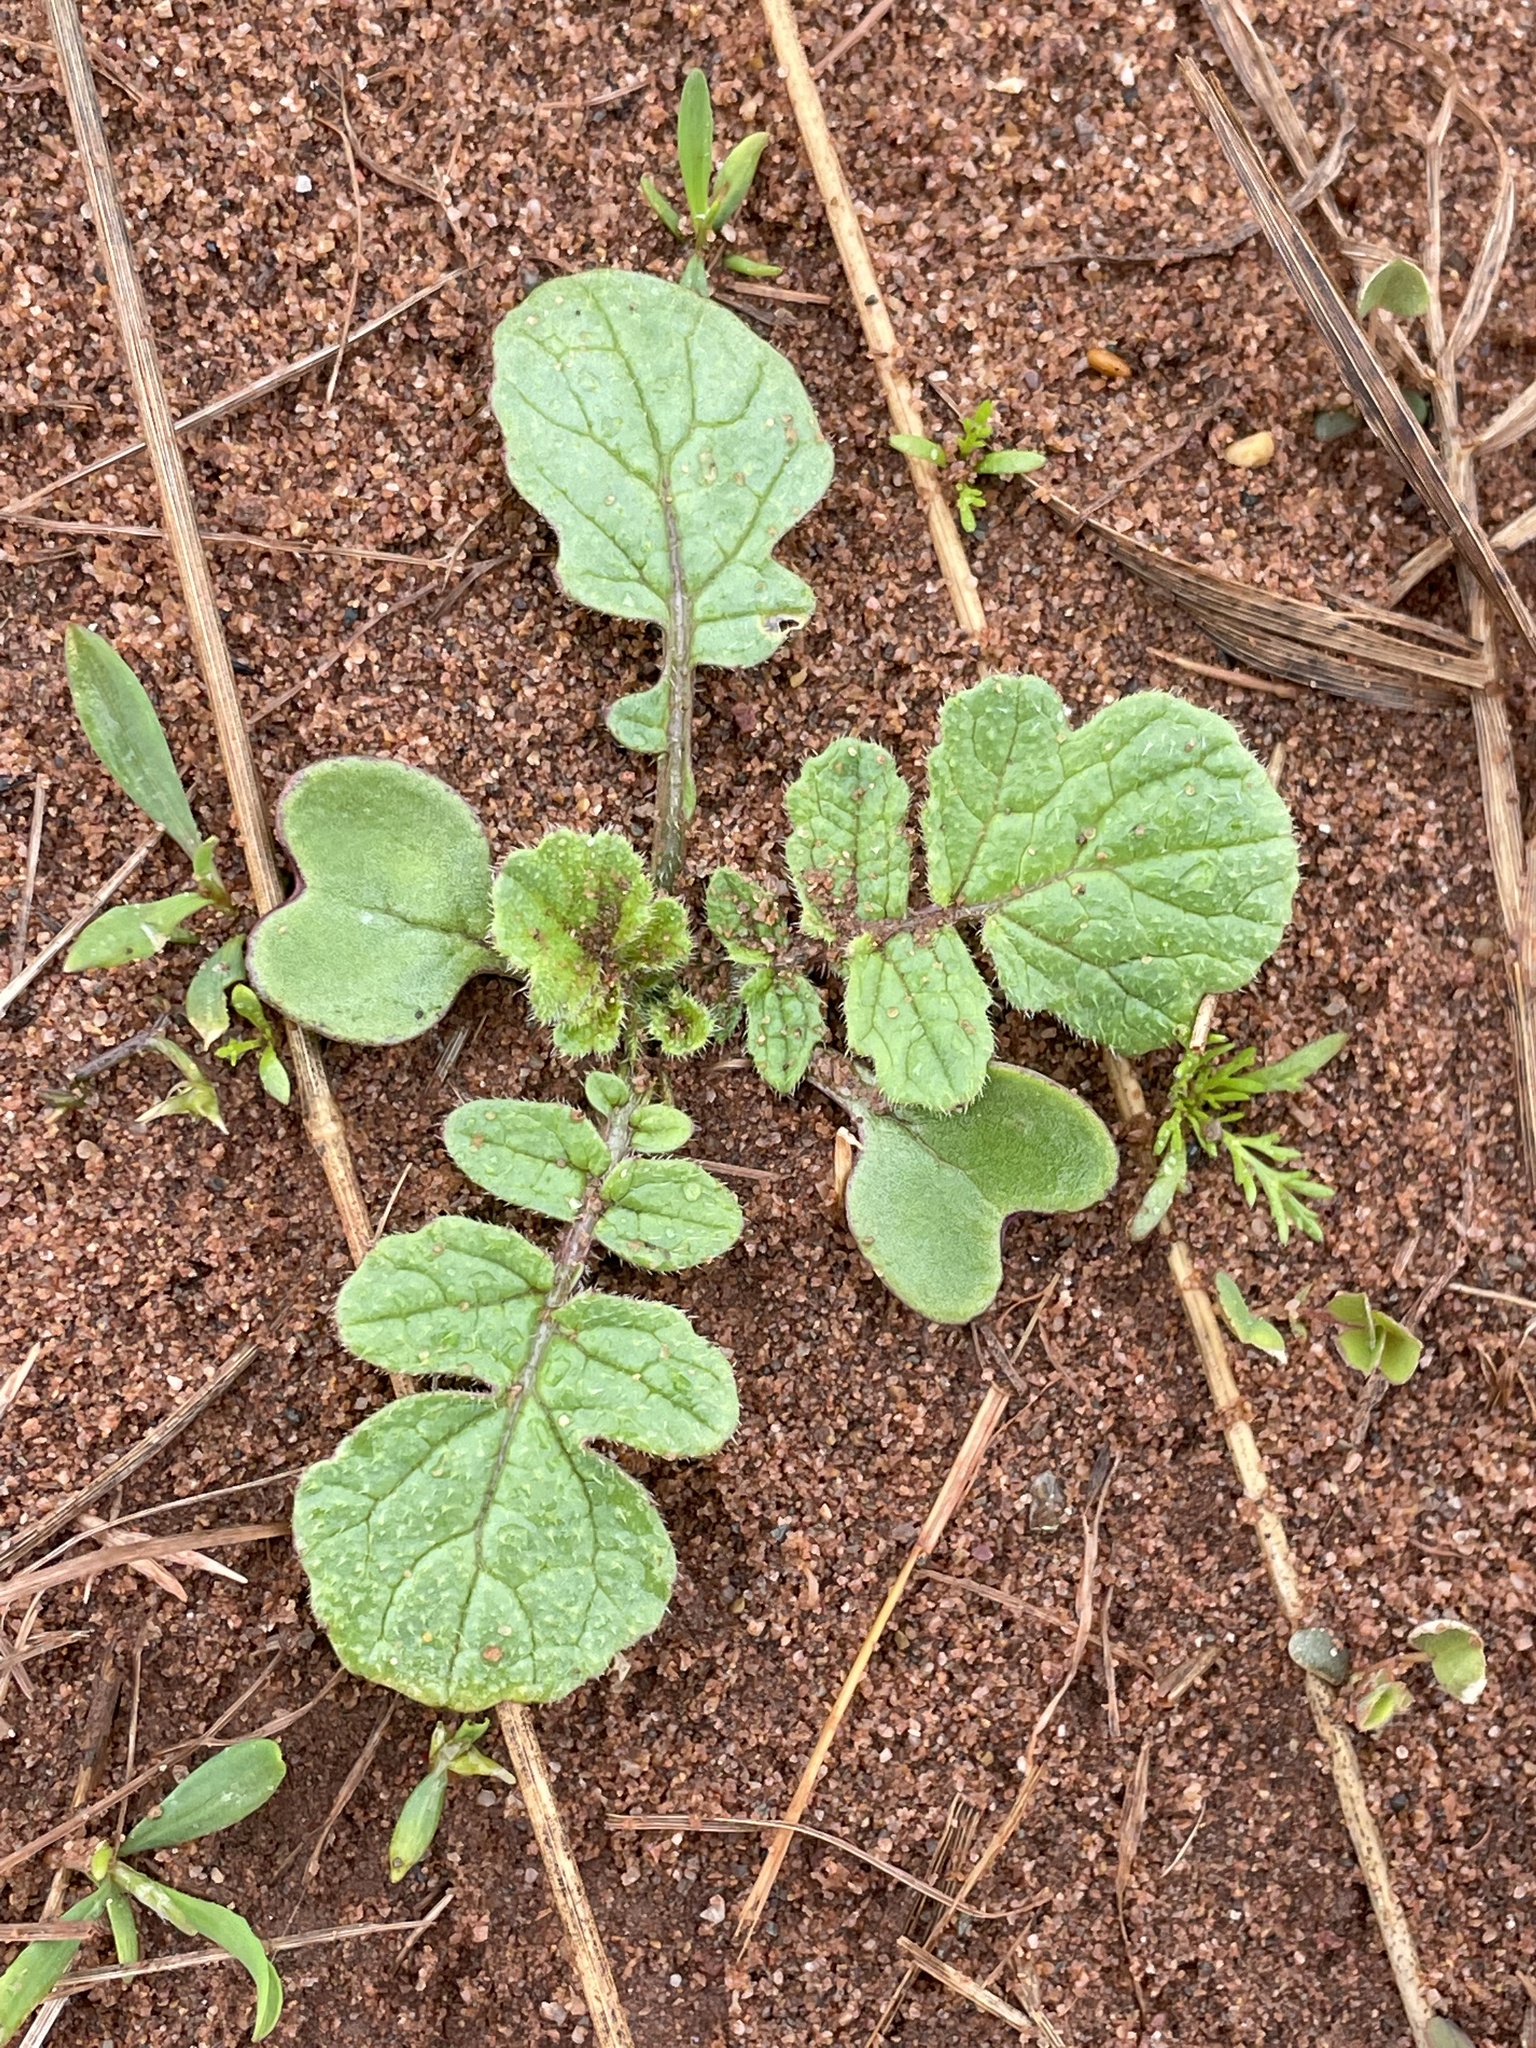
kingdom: Plantae
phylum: Tracheophyta
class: Magnoliopsida
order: Brassicales
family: Brassicaceae
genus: Raphanus
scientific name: Raphanus raphanistrum
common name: Wild radish
